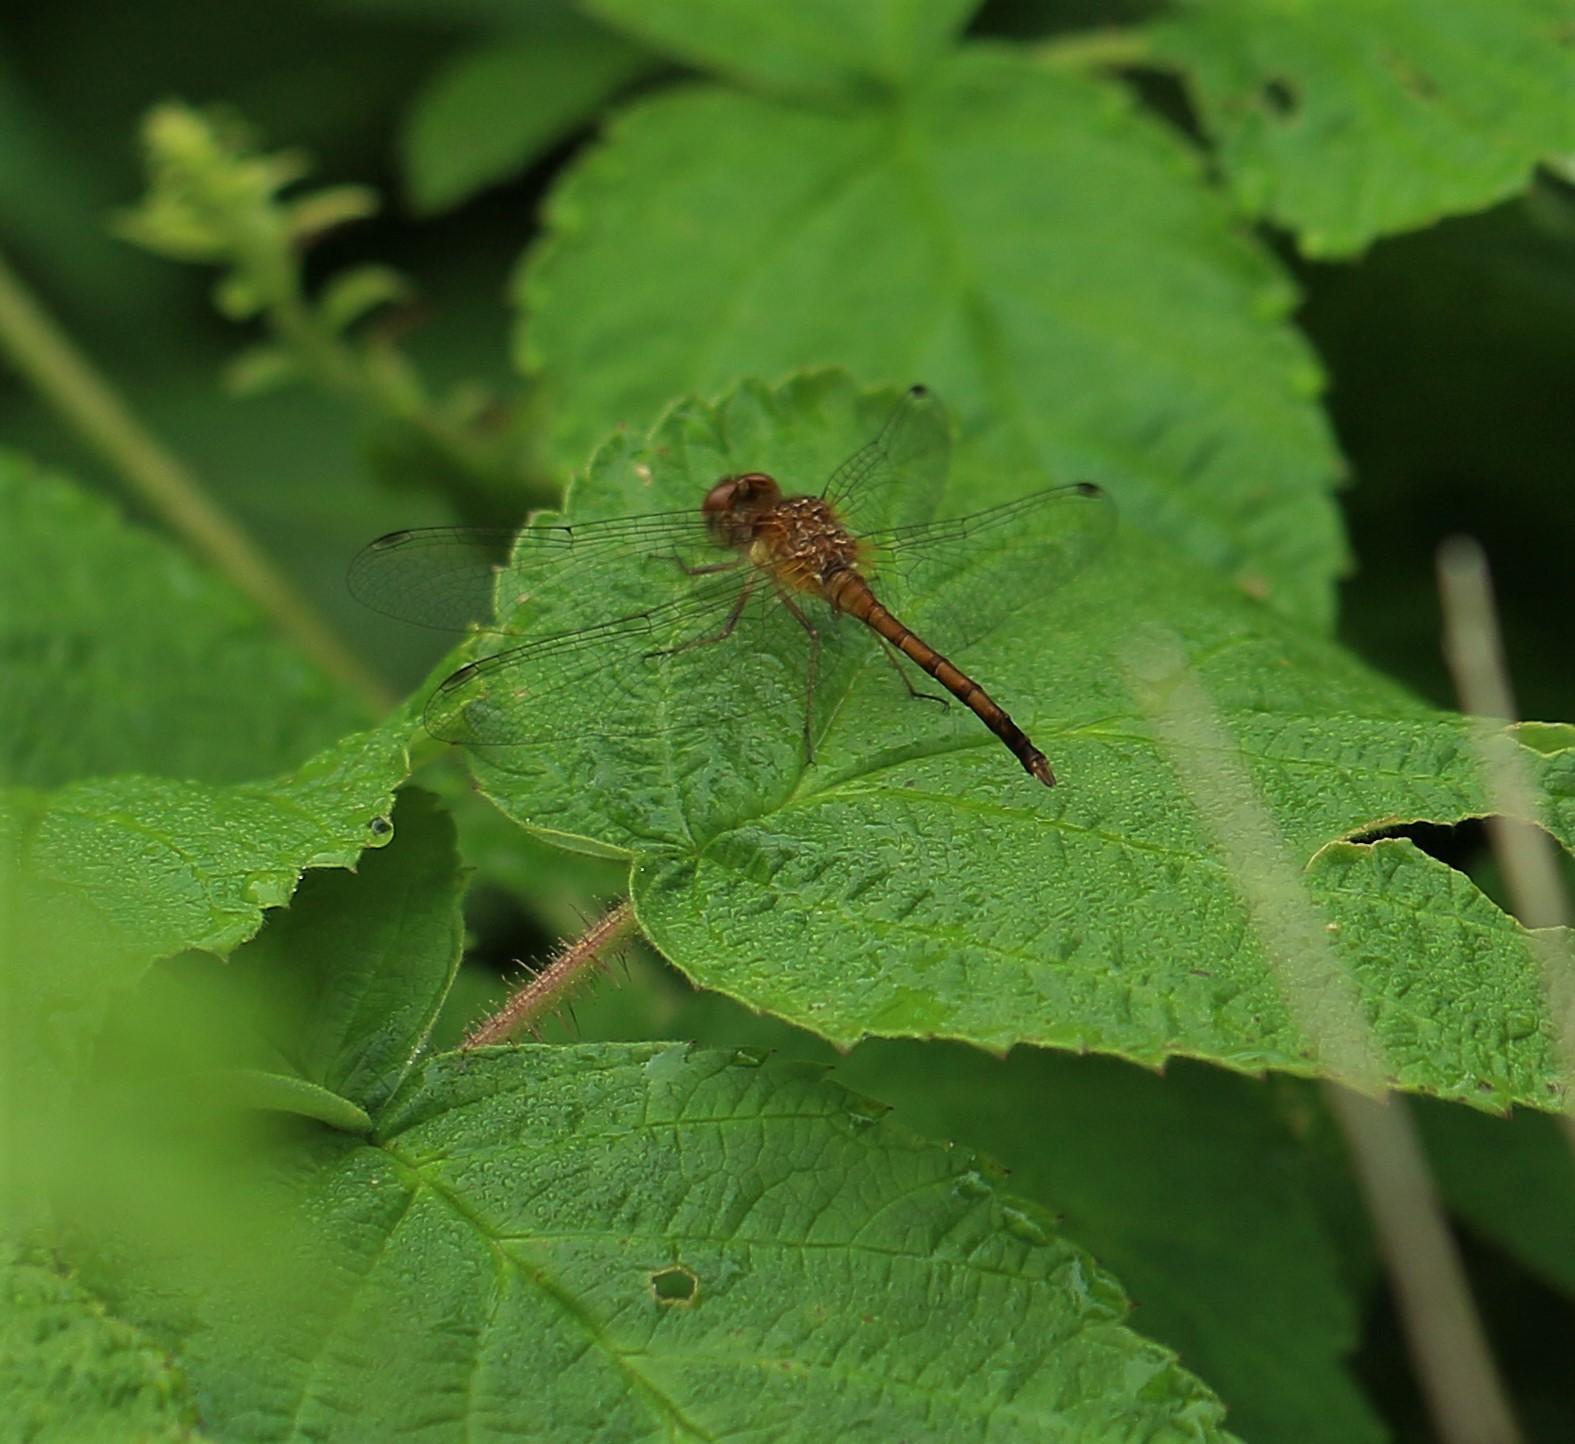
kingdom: Animalia
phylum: Arthropoda
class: Insecta
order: Odonata
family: Libellulidae
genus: Sympetrum
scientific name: Sympetrum vicinum
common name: Autumn meadowhawk
